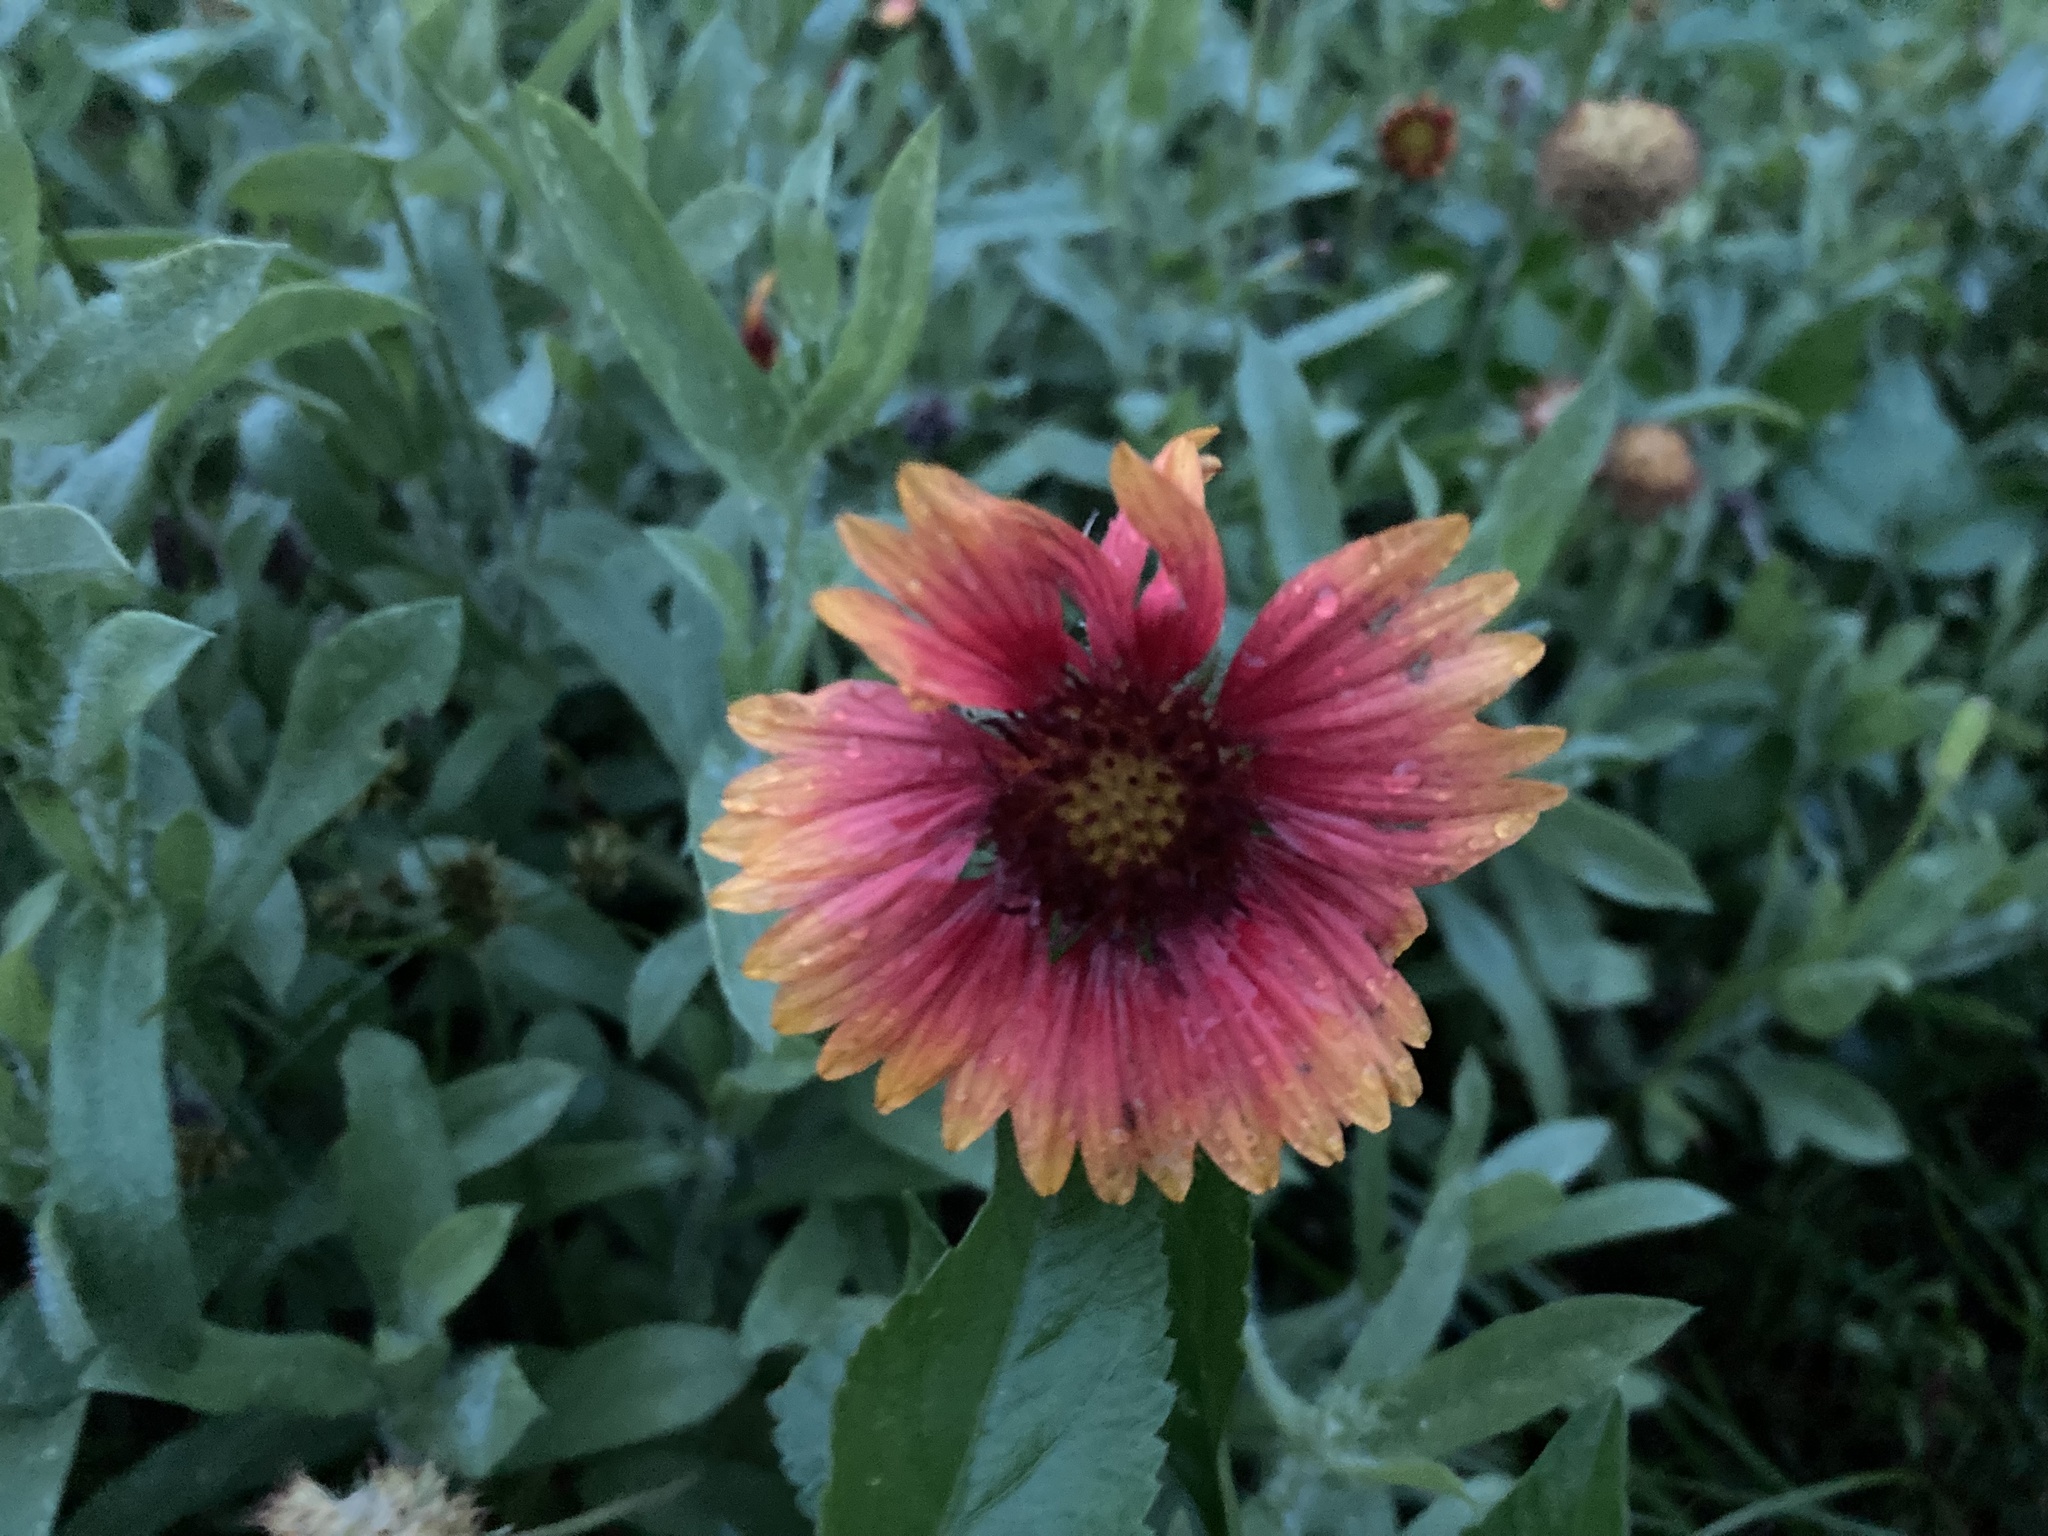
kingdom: Plantae
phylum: Tracheophyta
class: Magnoliopsida
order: Asterales
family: Asteraceae
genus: Gaillardia
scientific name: Gaillardia pulchella
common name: Firewheel
